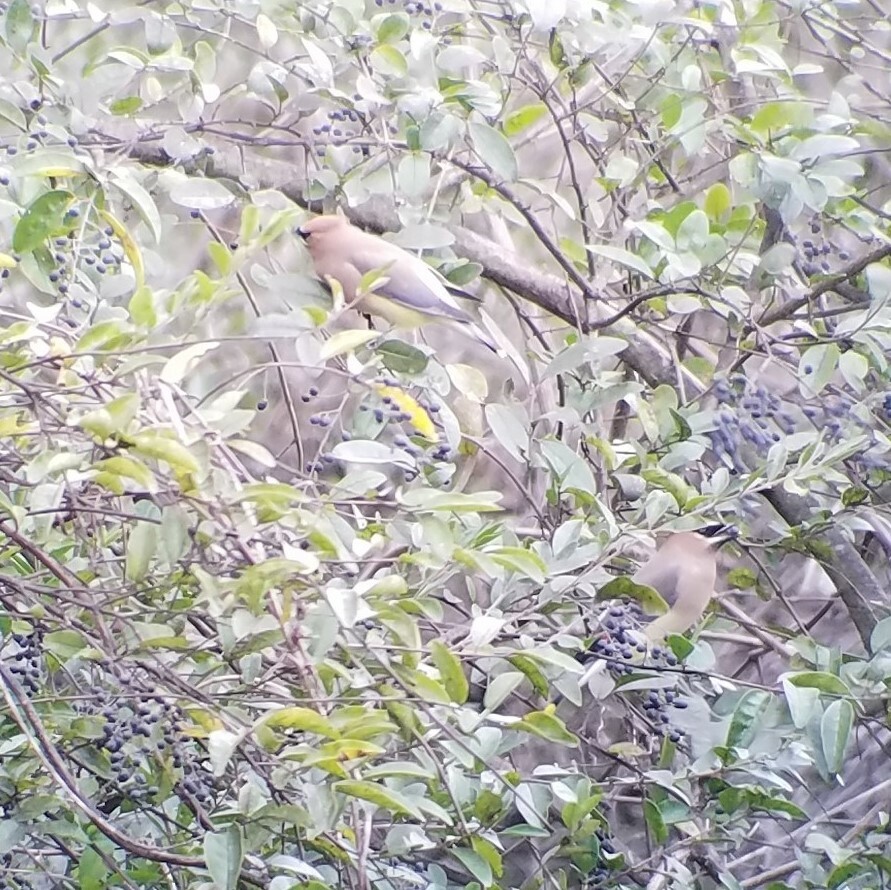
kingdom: Animalia
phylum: Chordata
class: Aves
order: Passeriformes
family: Bombycillidae
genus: Bombycilla
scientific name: Bombycilla cedrorum
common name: Cedar waxwing
